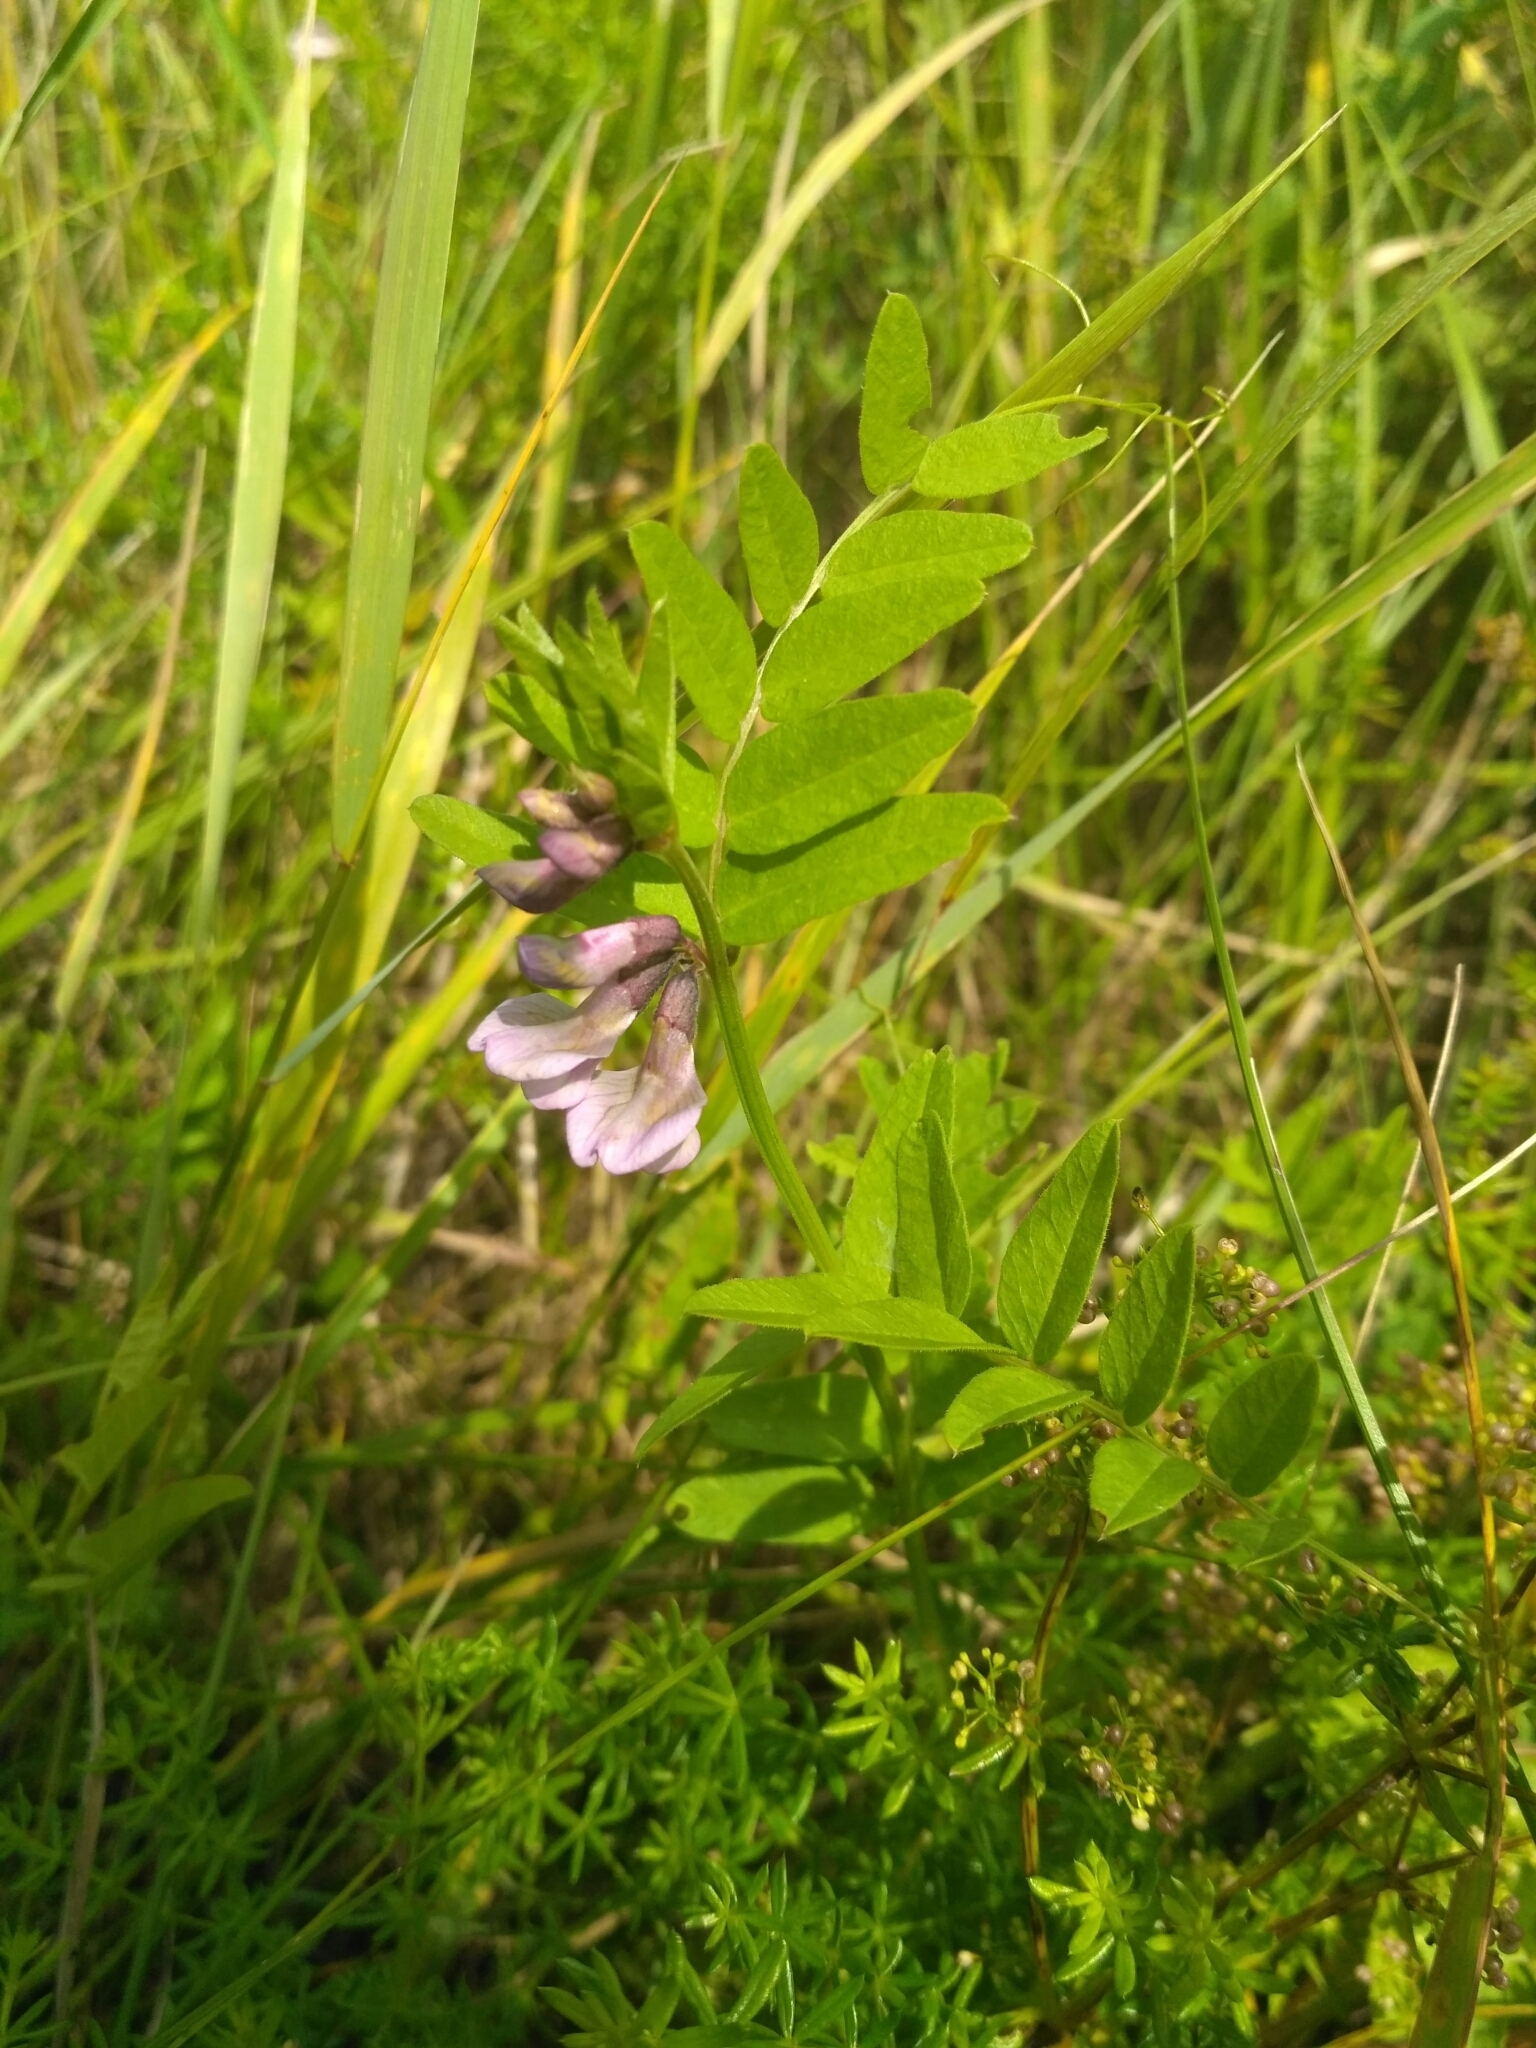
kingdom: Plantae
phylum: Tracheophyta
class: Magnoliopsida
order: Fabales
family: Fabaceae
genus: Vicia
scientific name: Vicia sepium
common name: Bush vetch
